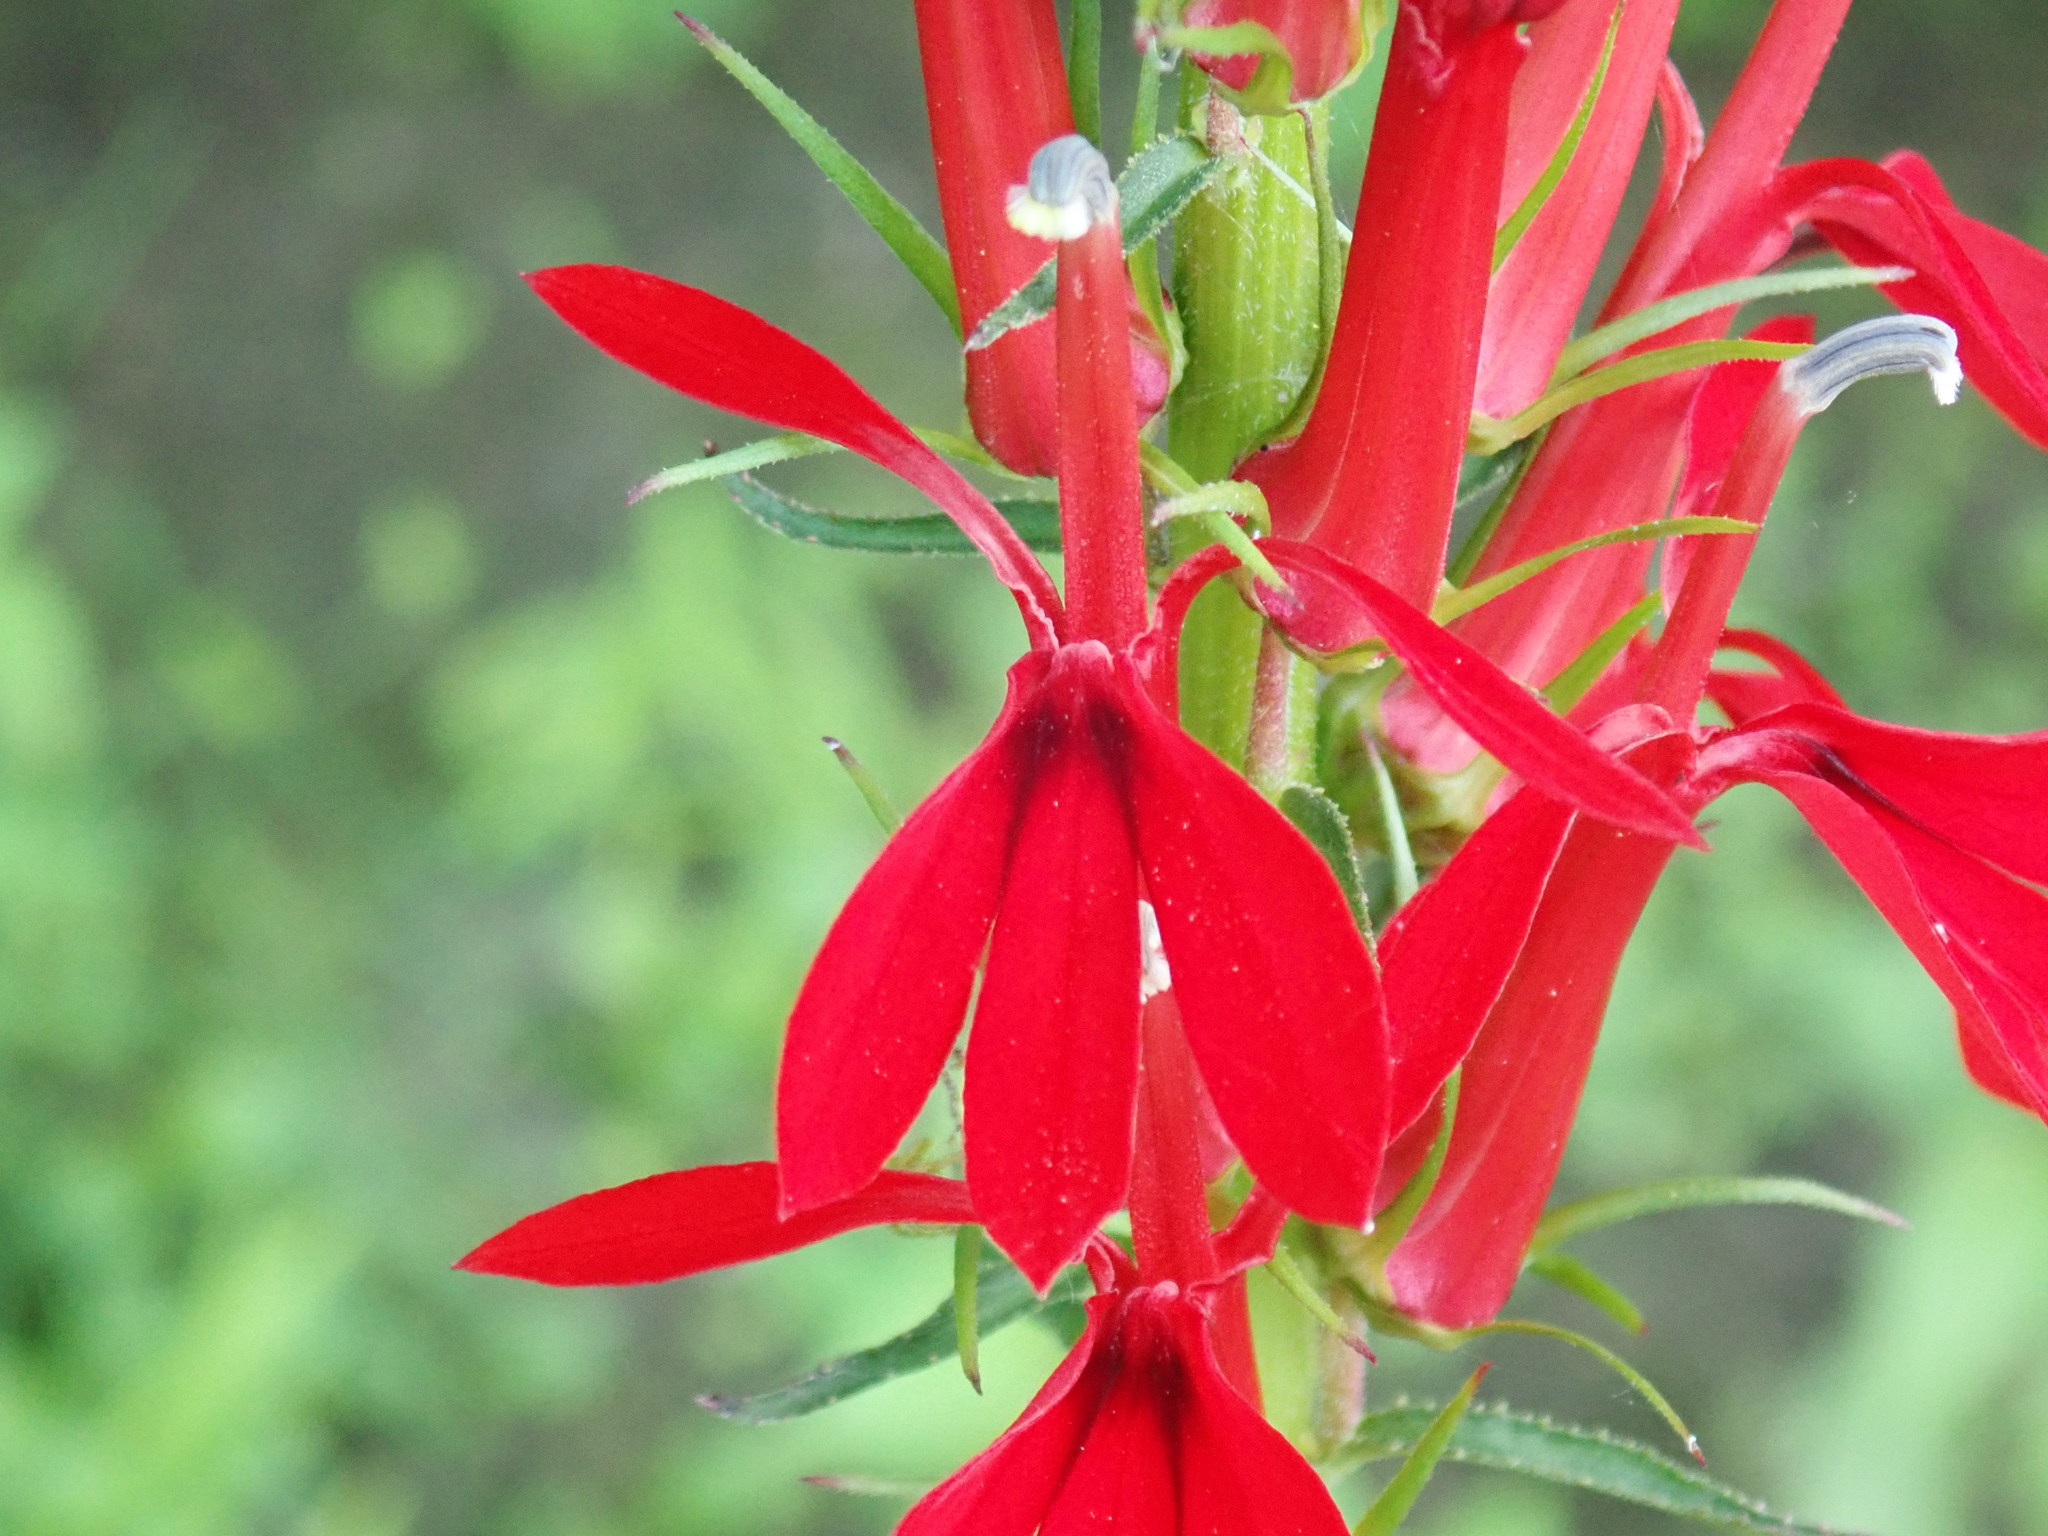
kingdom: Plantae
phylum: Tracheophyta
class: Magnoliopsida
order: Asterales
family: Campanulaceae
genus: Lobelia
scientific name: Lobelia cardinalis
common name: Cardinal flower
